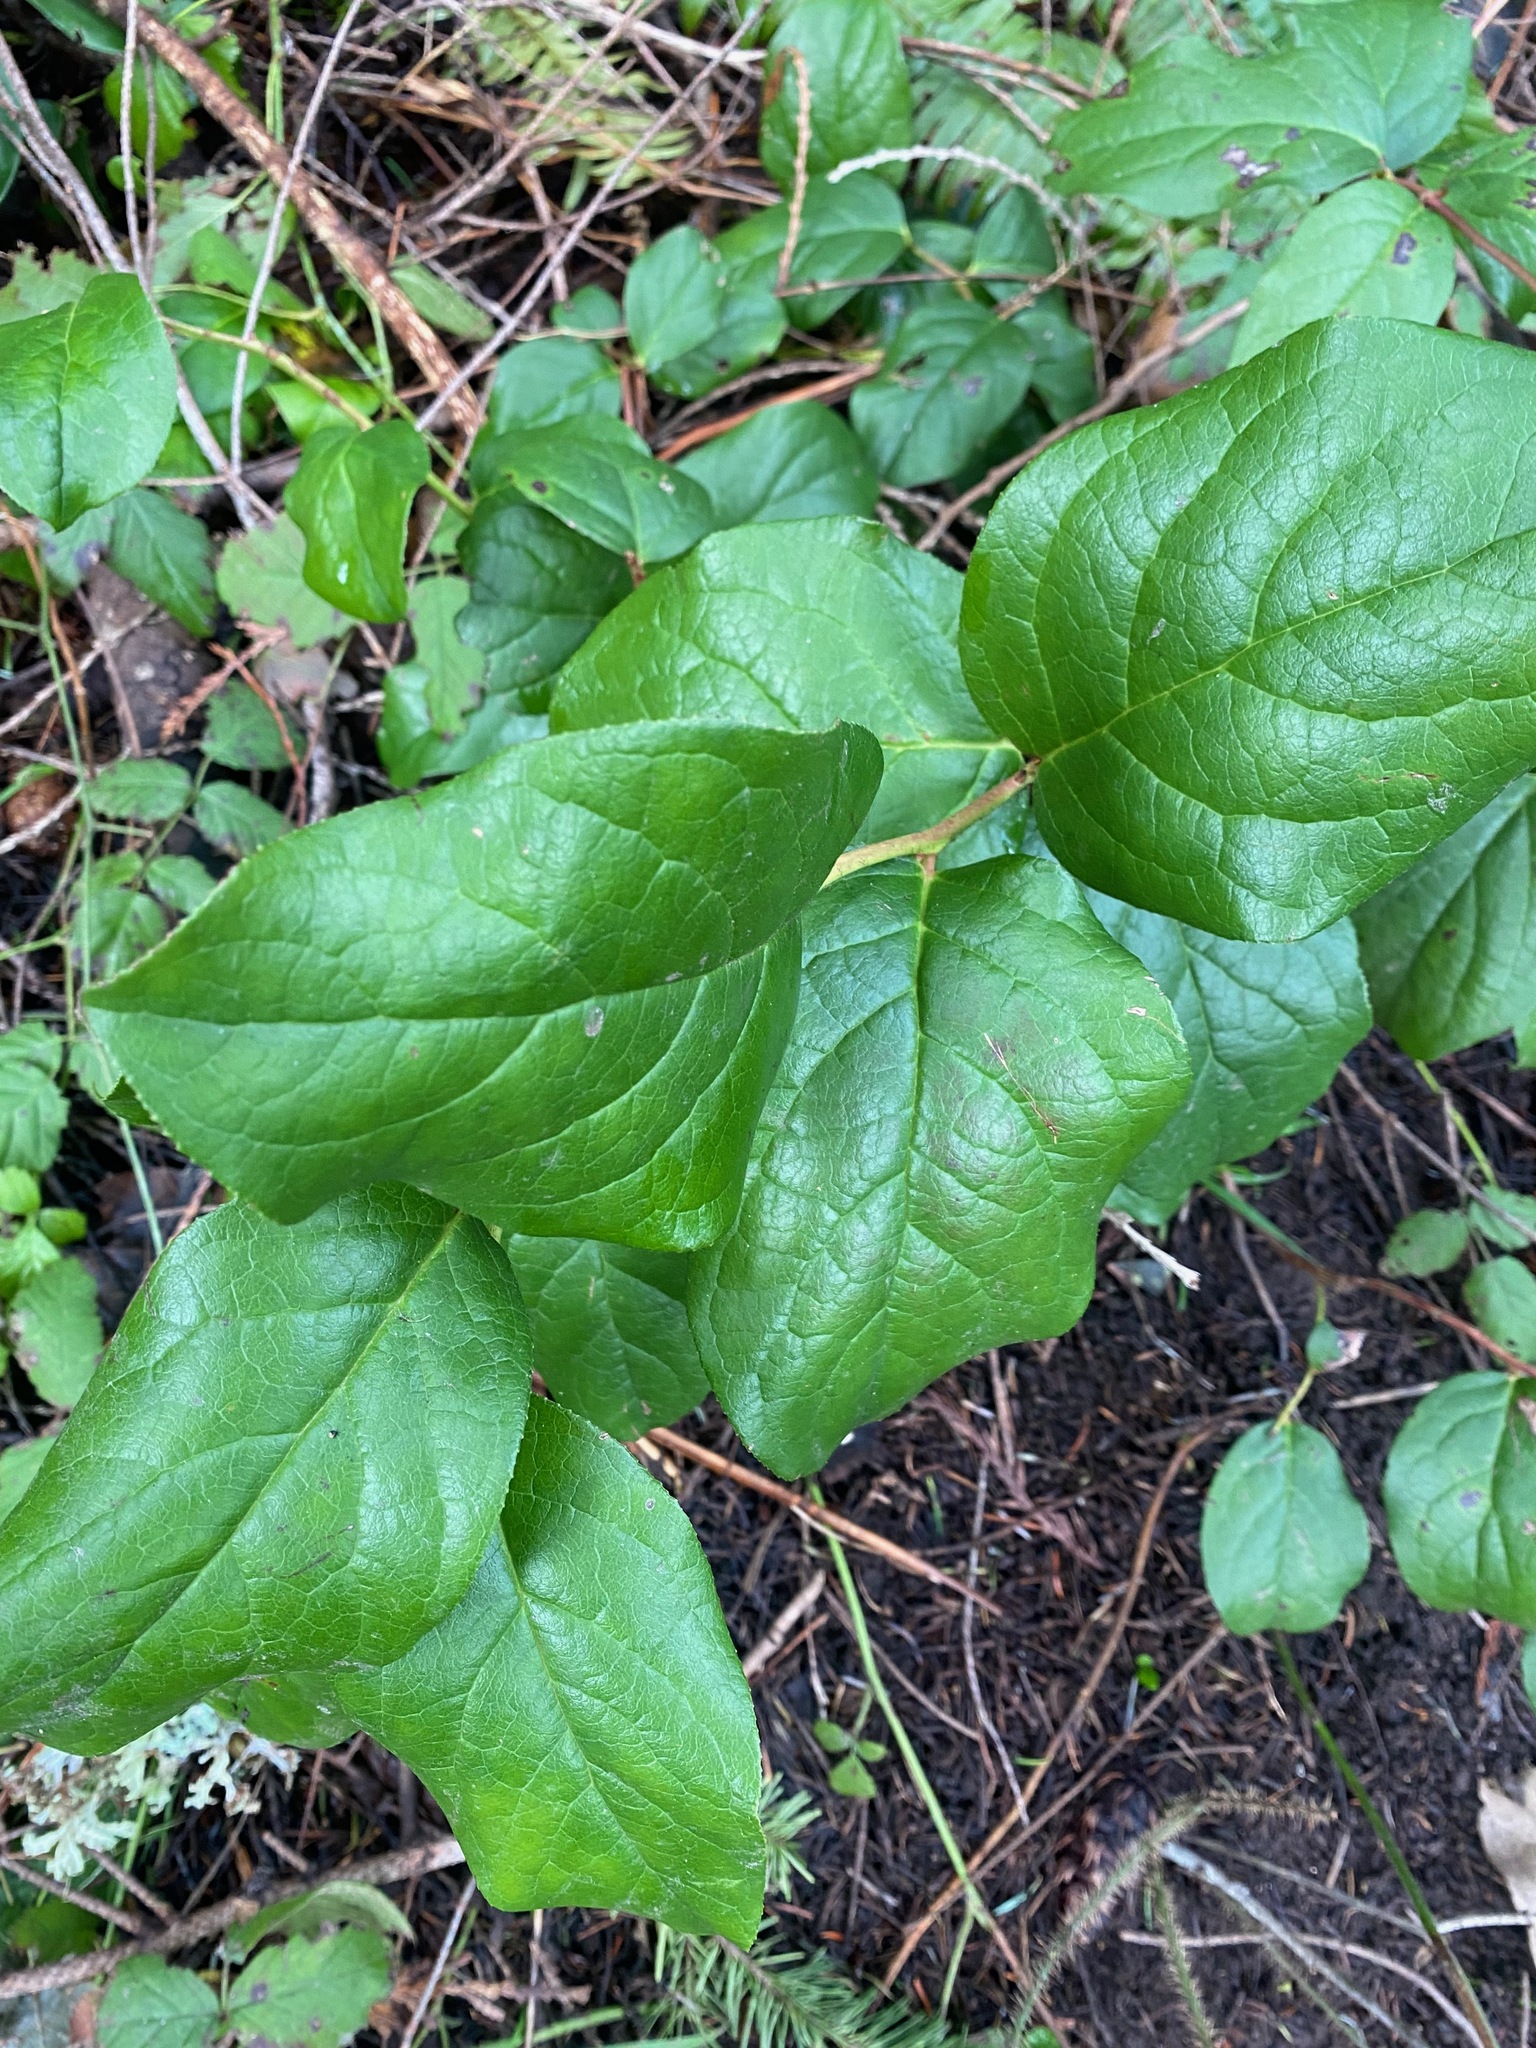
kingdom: Plantae
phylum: Tracheophyta
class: Magnoliopsida
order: Ericales
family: Ericaceae
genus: Gaultheria
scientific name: Gaultheria shallon
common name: Shallon
